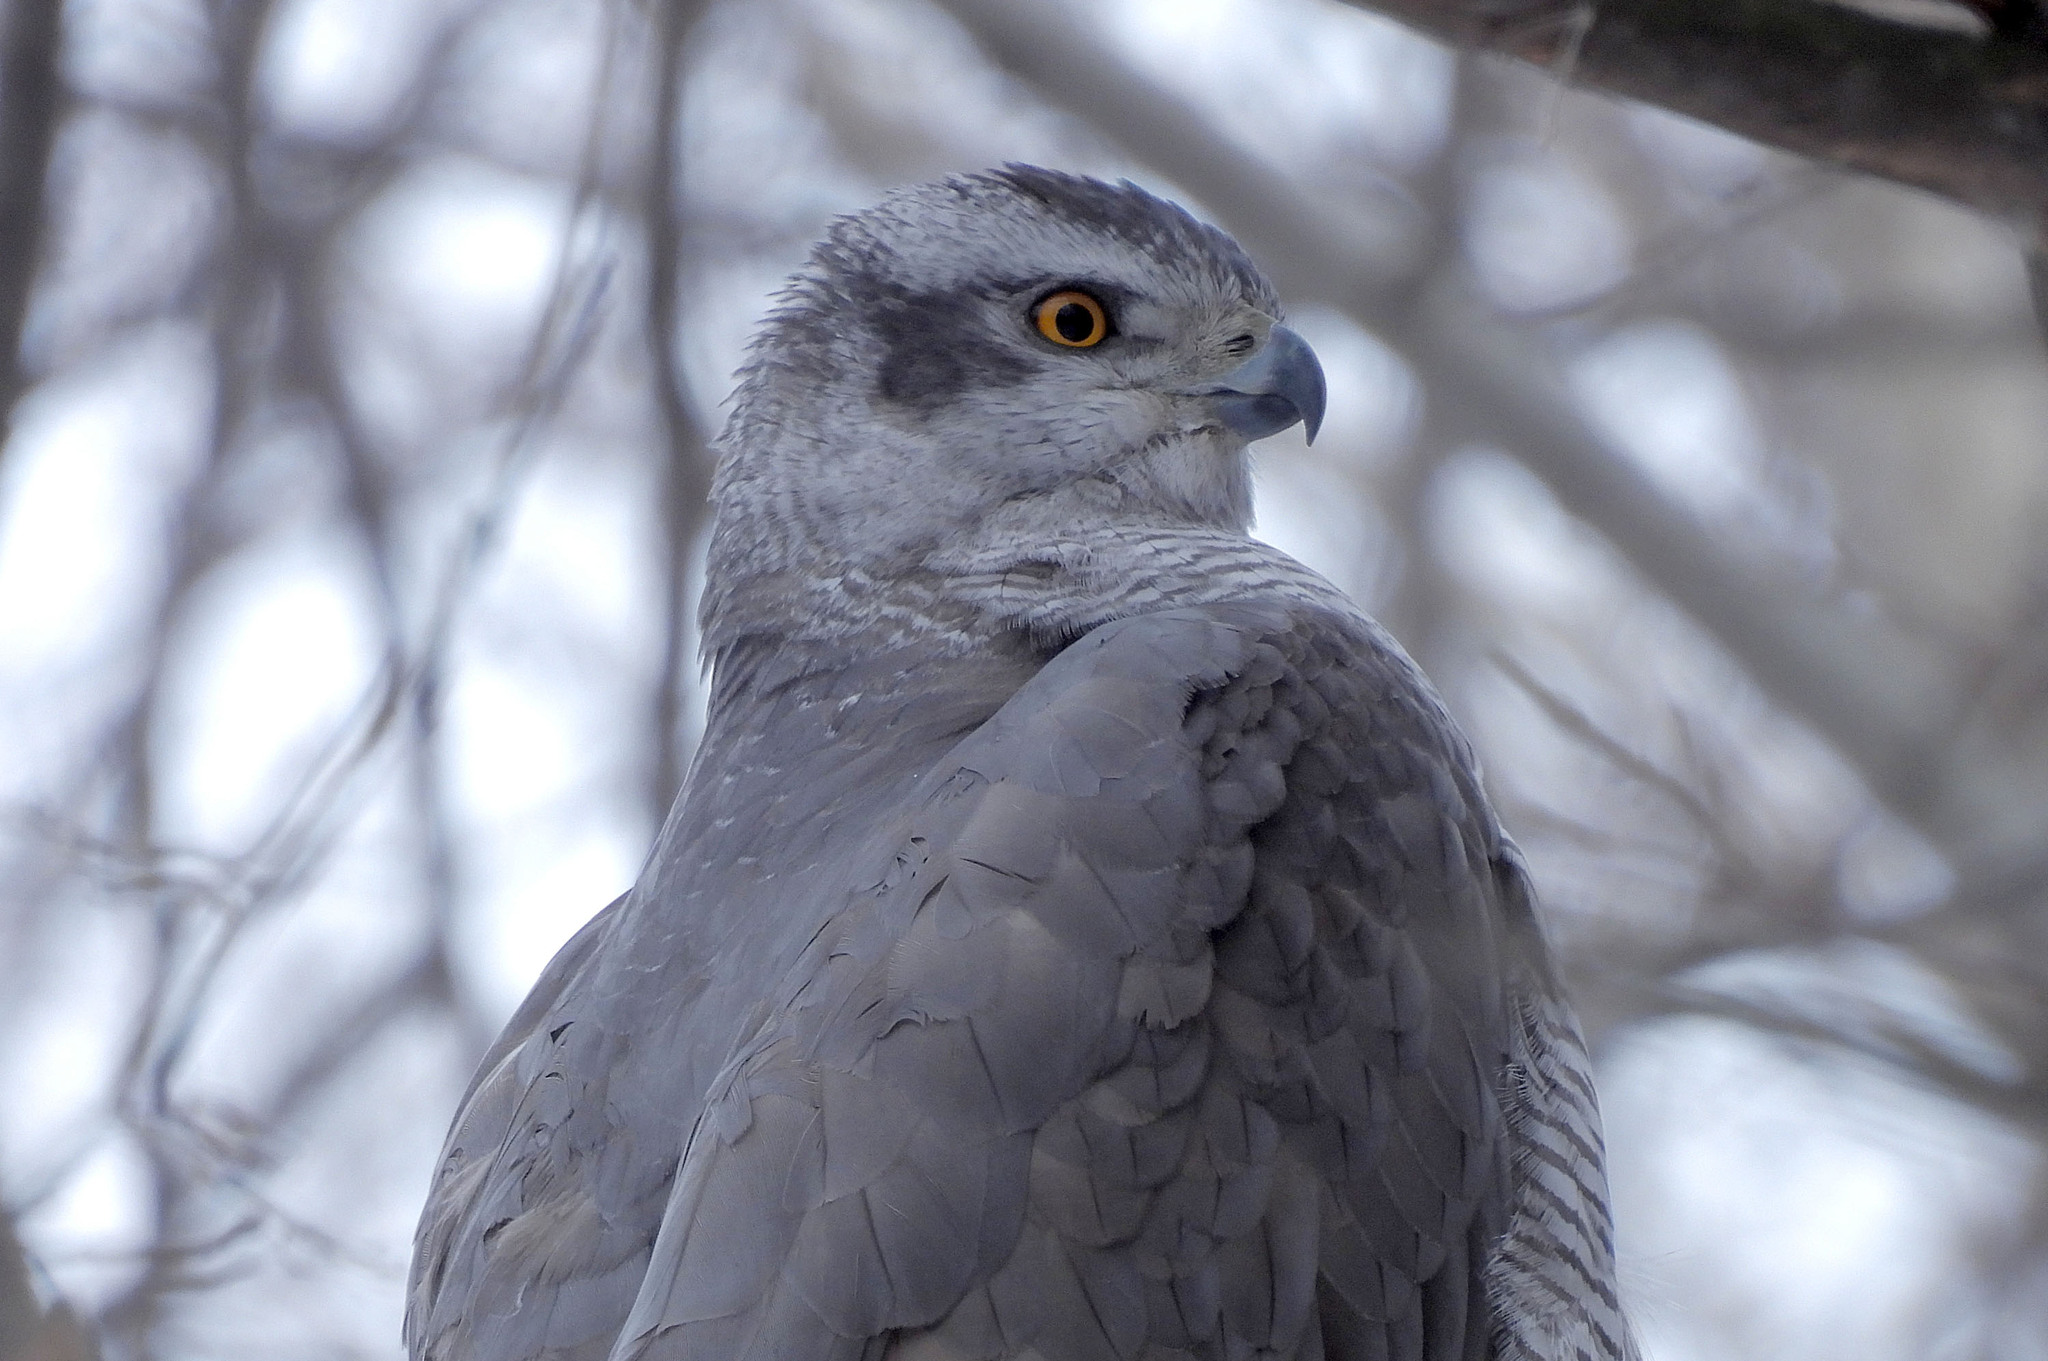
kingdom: Animalia
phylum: Chordata
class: Aves
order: Accipitriformes
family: Accipitridae
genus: Accipiter
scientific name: Accipiter gentilis
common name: Northern goshawk
